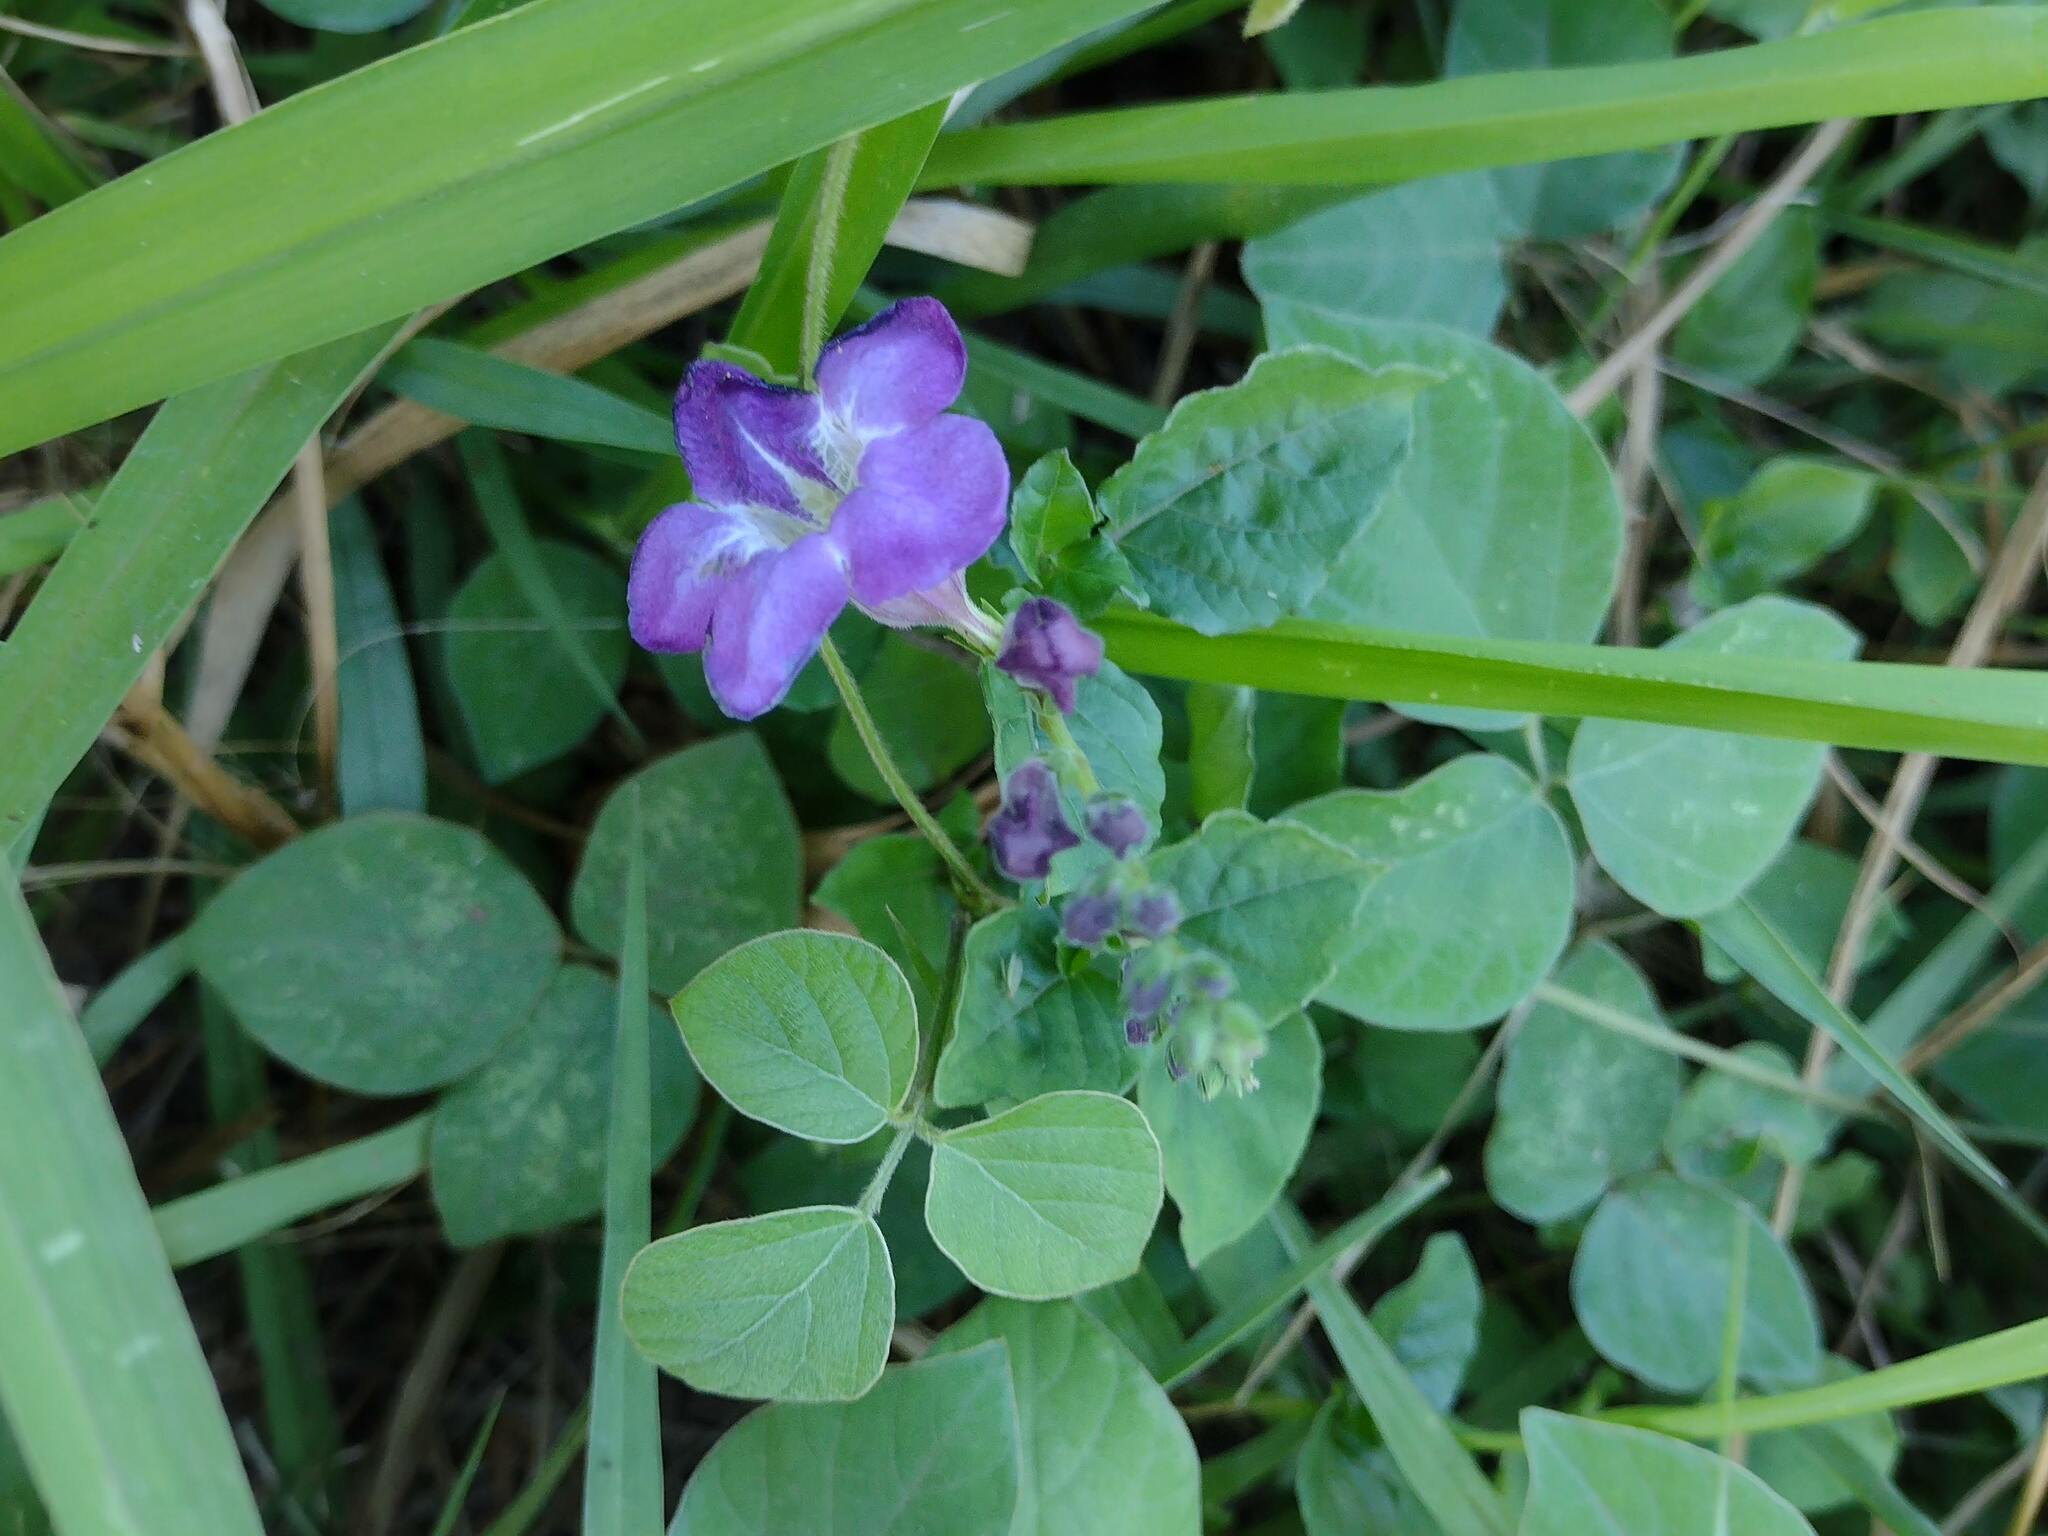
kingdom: Plantae
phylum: Tracheophyta
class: Magnoliopsida
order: Lamiales
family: Acanthaceae
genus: Asystasia
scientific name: Asystasia gangetica
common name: Chinese violet
